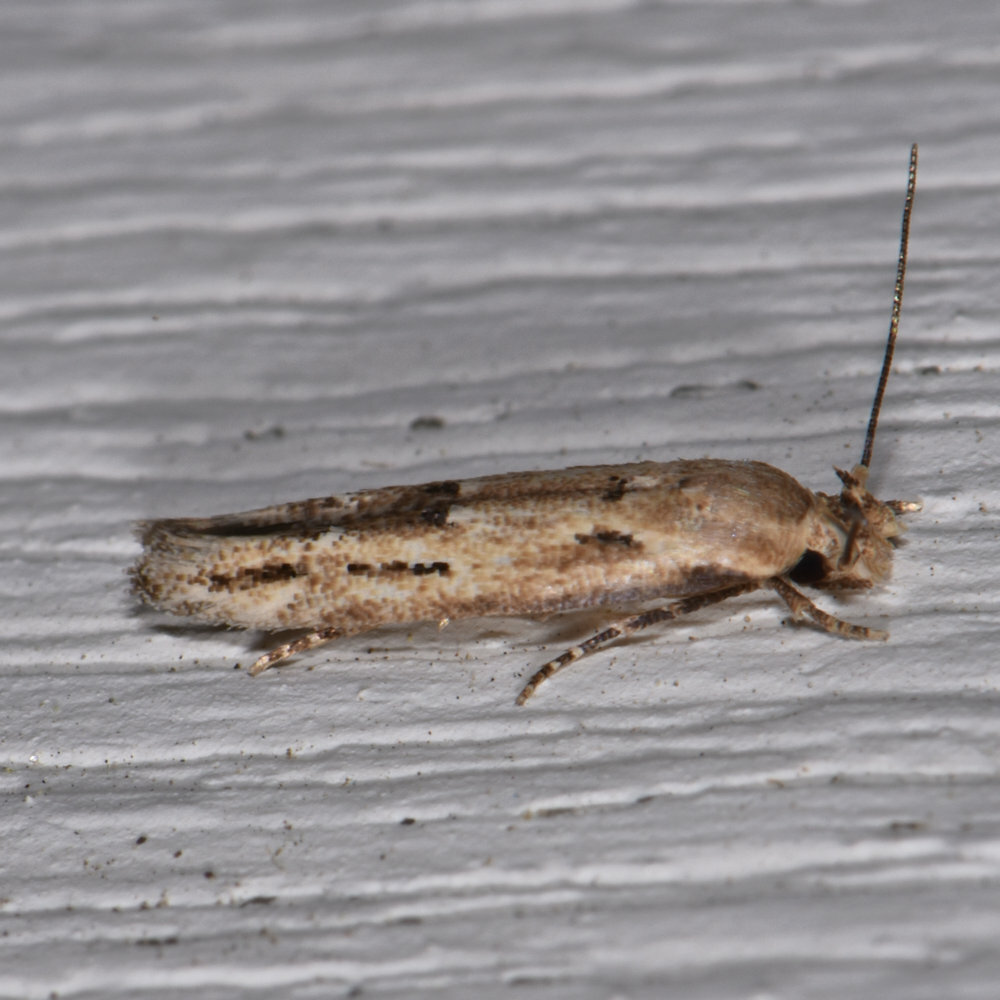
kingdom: Animalia
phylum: Arthropoda
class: Insecta
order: Lepidoptera
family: Momphidae
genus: Mompha
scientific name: Mompha brevivittella
